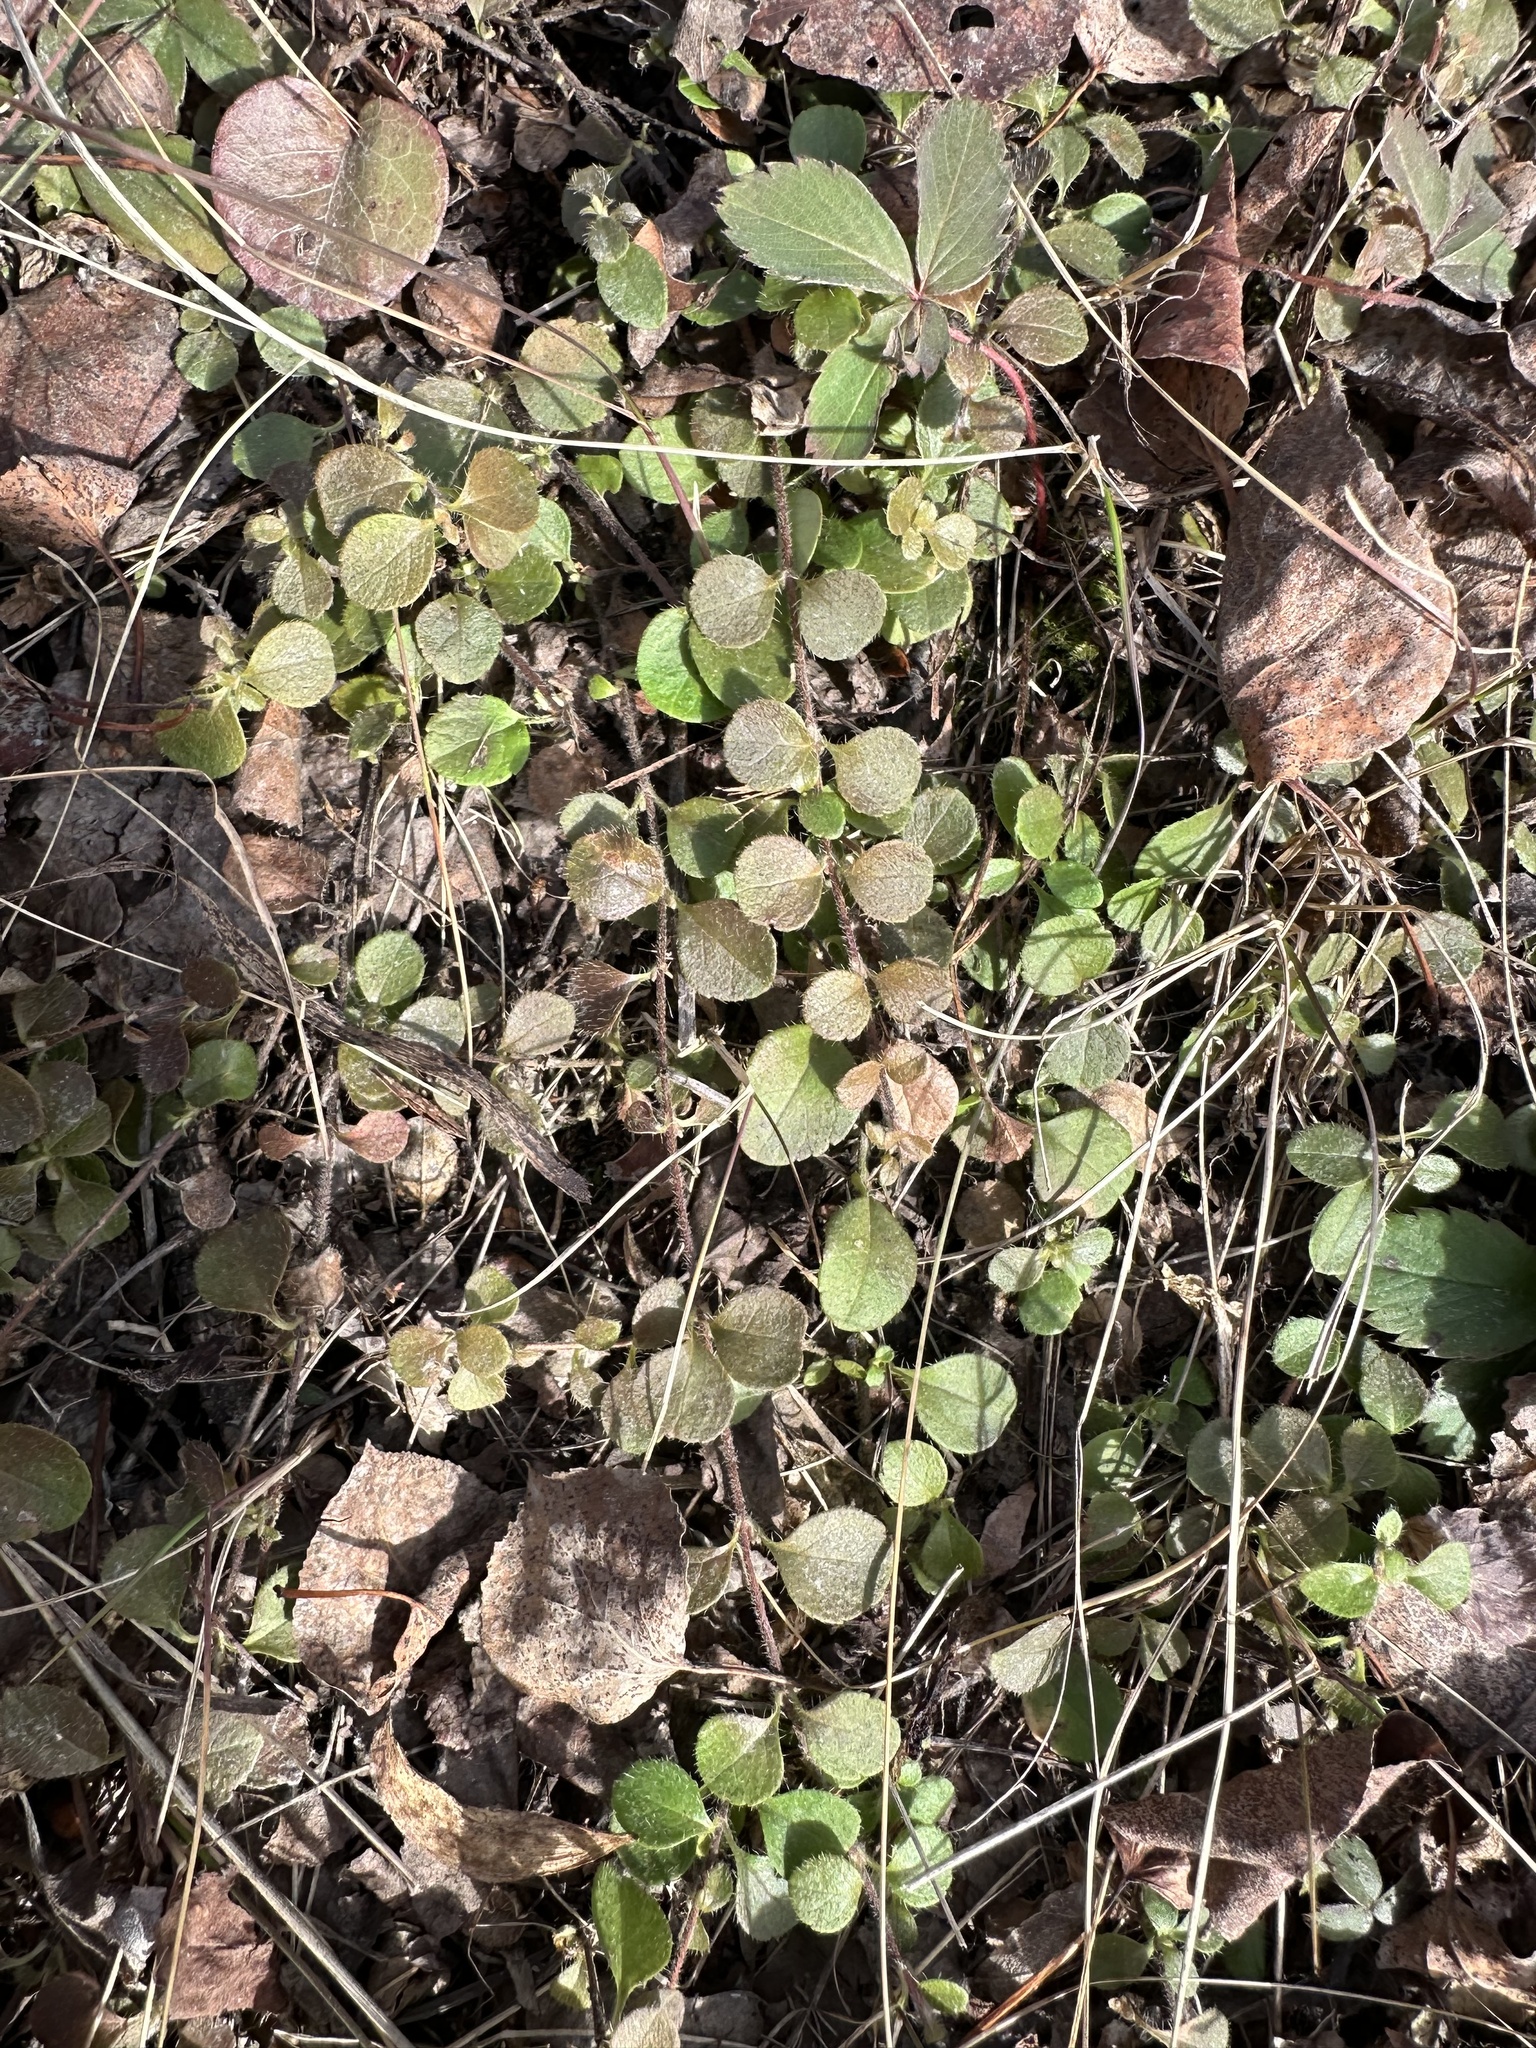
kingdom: Plantae
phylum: Tracheophyta
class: Magnoliopsida
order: Dipsacales
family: Caprifoliaceae
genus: Linnaea
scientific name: Linnaea borealis
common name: Twinflower
